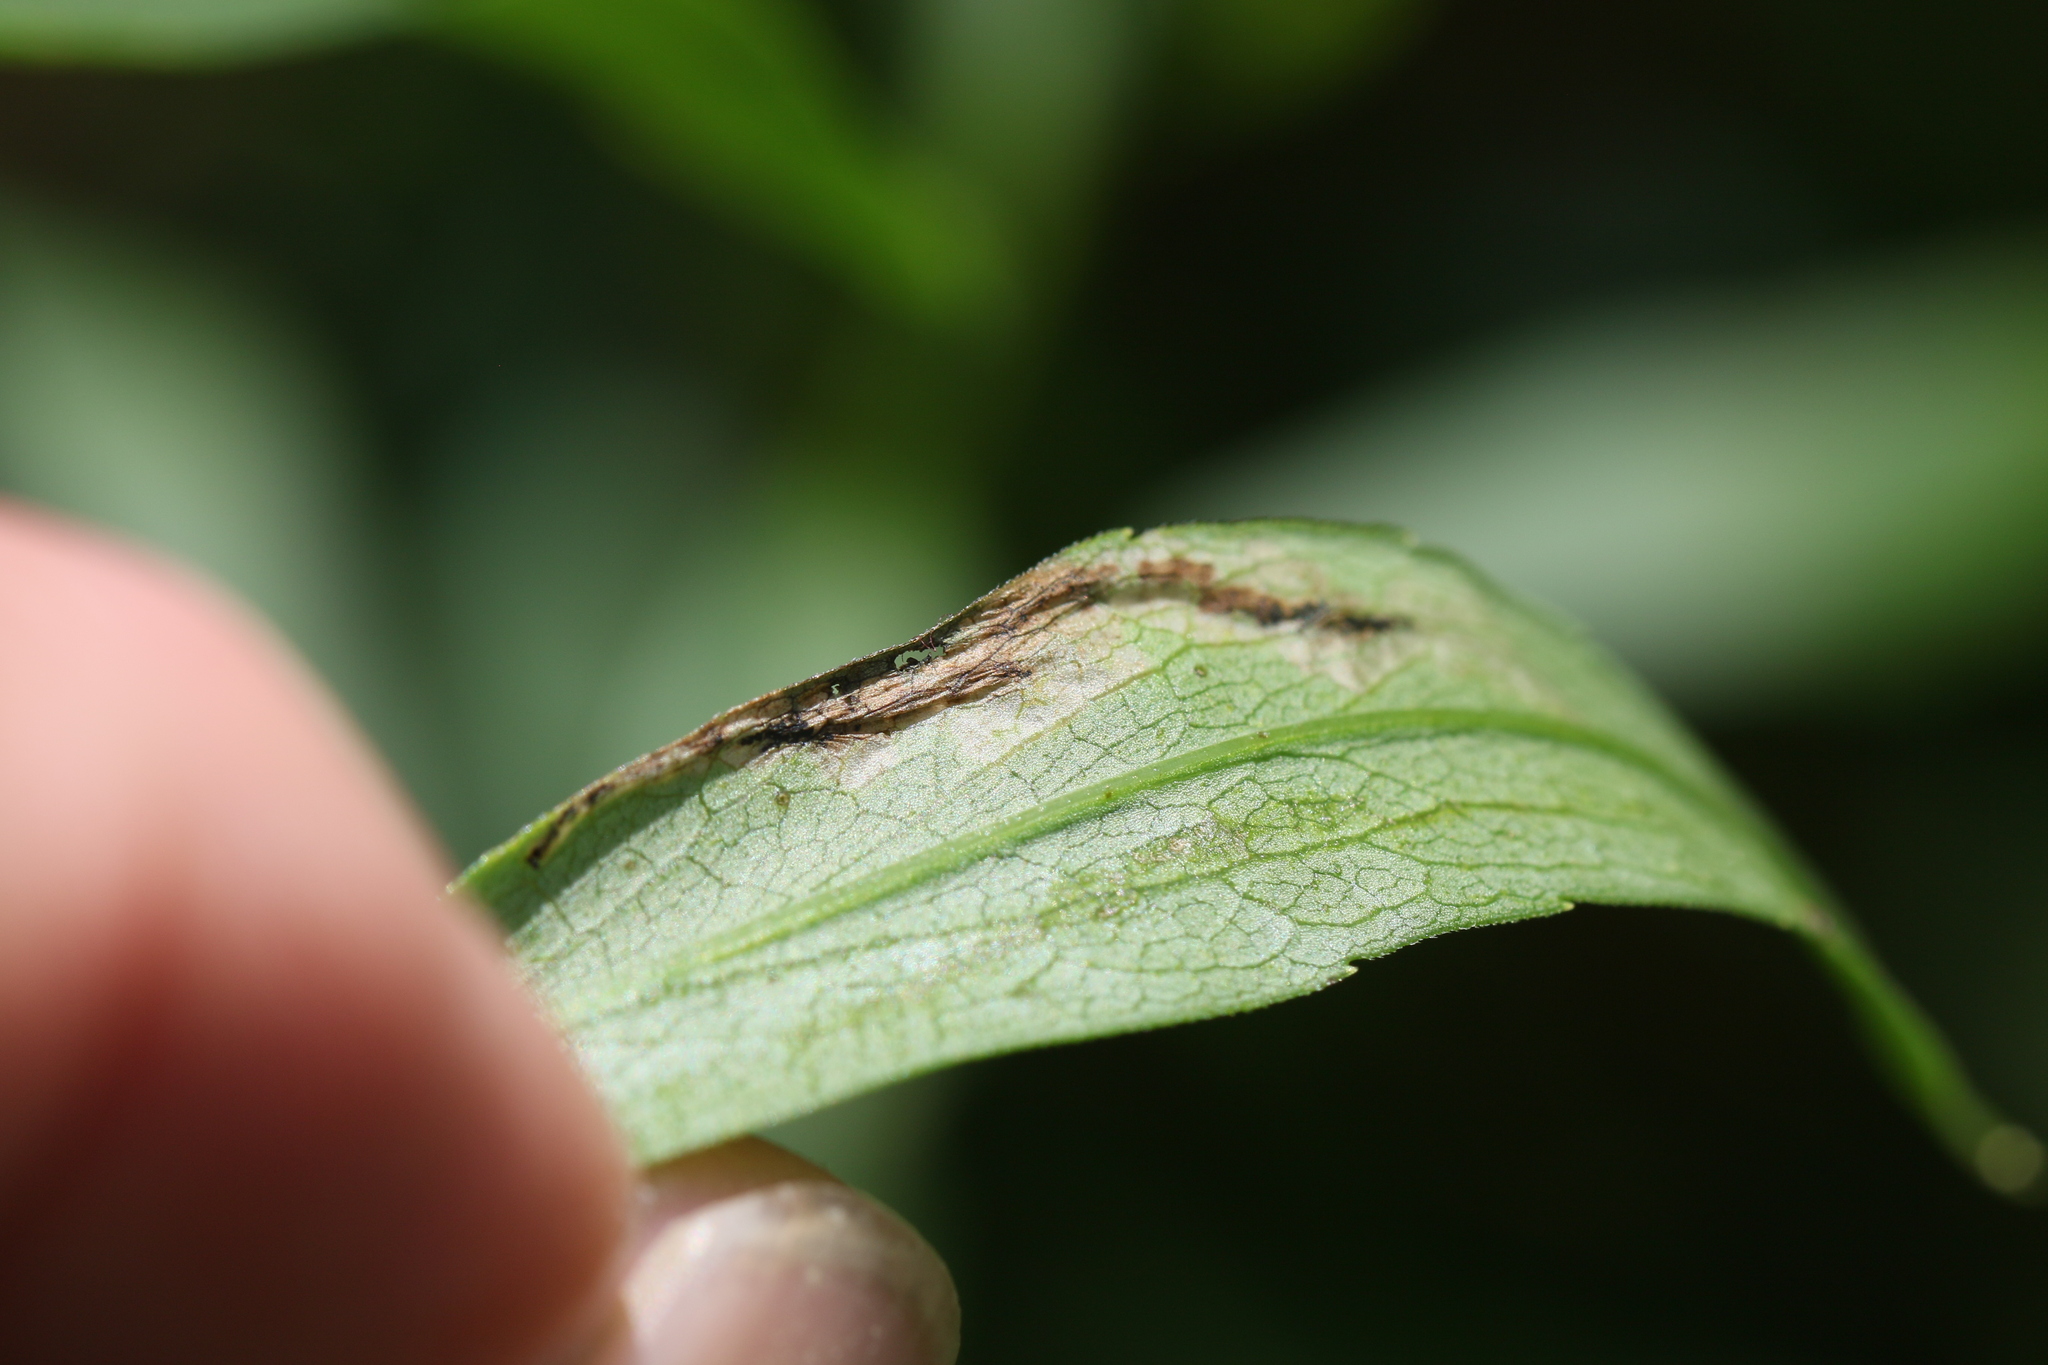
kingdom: Animalia
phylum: Arthropoda
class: Insecta
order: Lepidoptera
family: Bucculatricidae
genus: Bucculatrix
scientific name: Bucculatrix angustata
